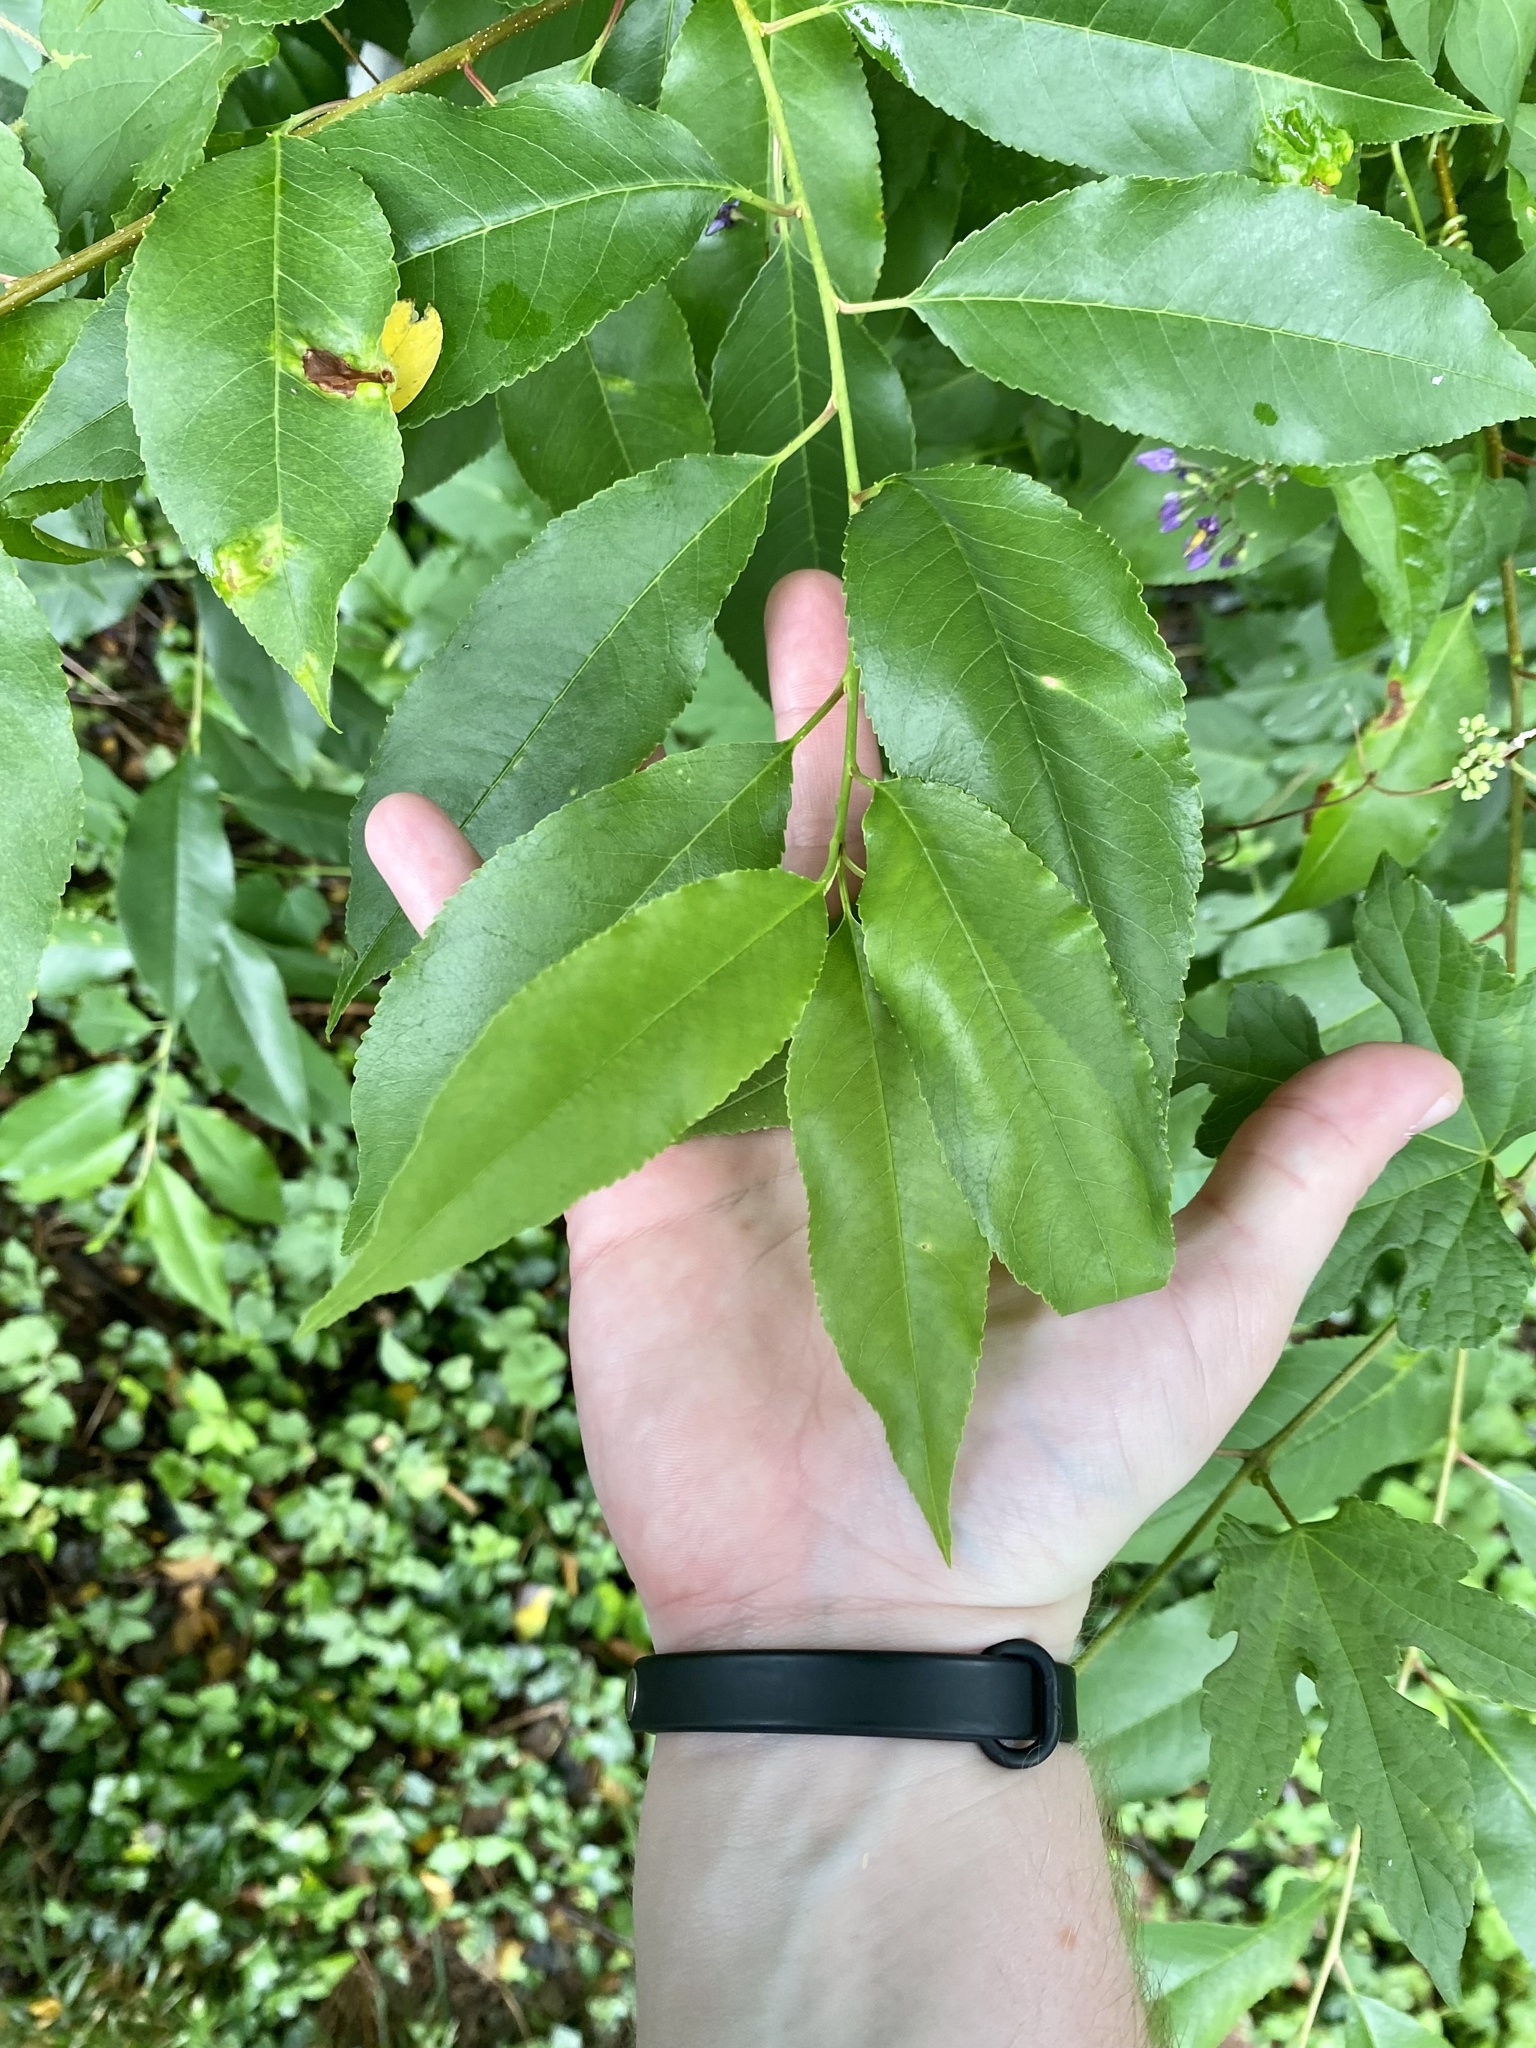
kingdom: Plantae
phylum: Tracheophyta
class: Magnoliopsida
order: Rosales
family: Rosaceae
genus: Prunus
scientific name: Prunus serotina
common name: Black cherry
